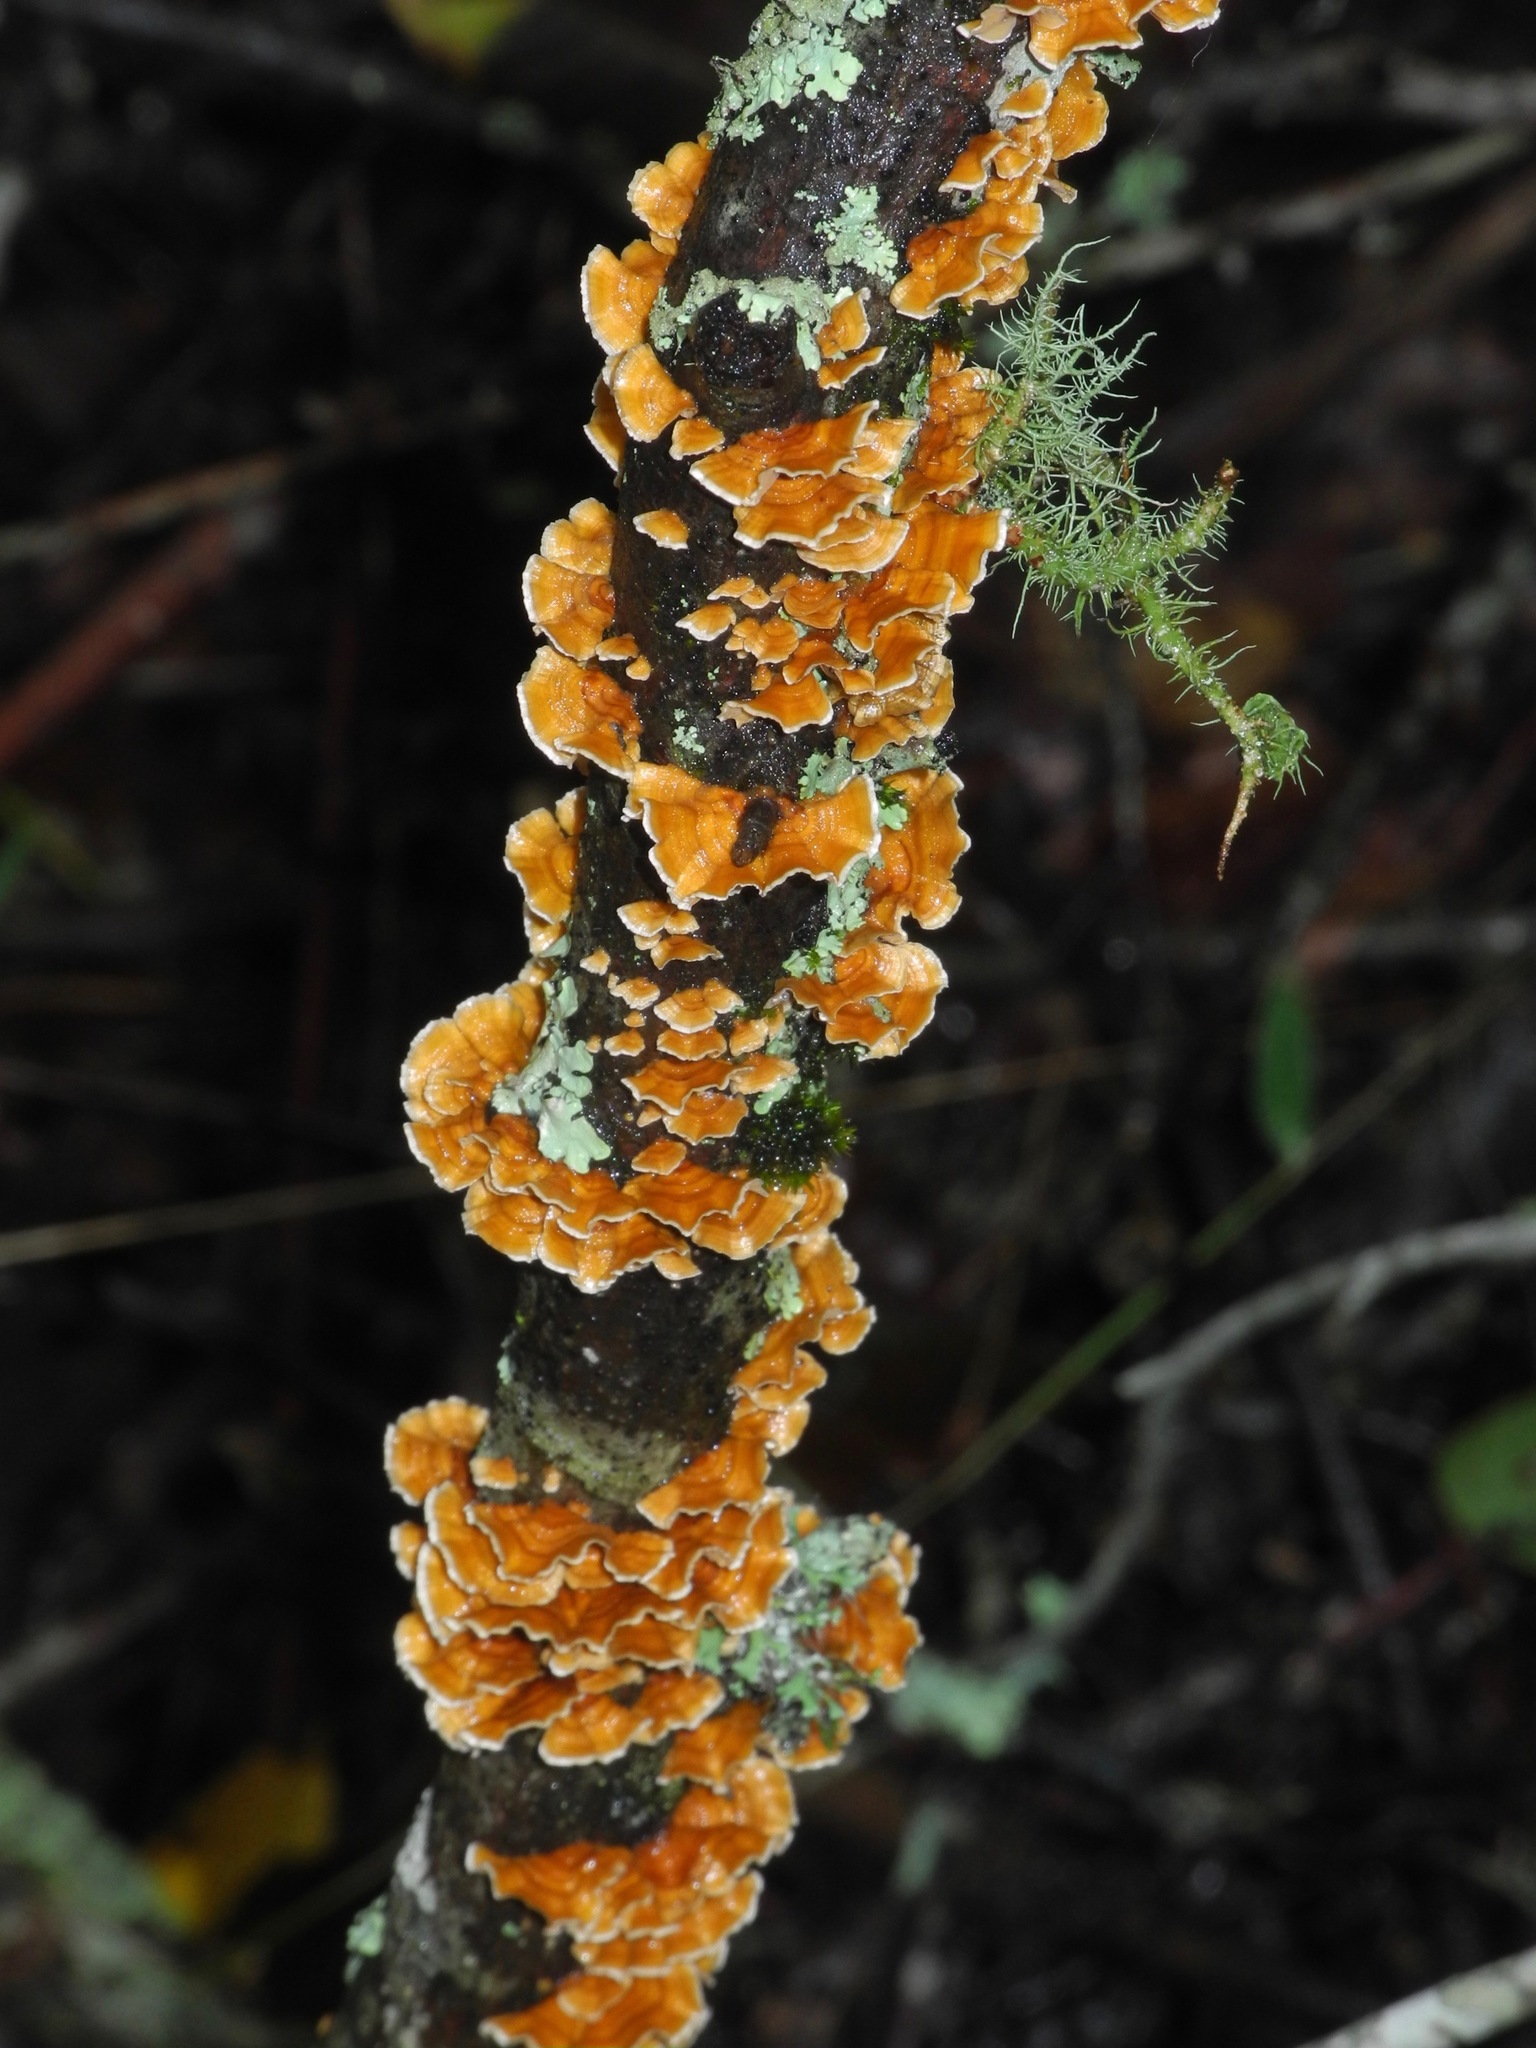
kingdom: Fungi
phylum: Basidiomycota
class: Agaricomycetes
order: Russulales
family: Stereaceae
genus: Stereum
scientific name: Stereum complicatum
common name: Crowded parchment
